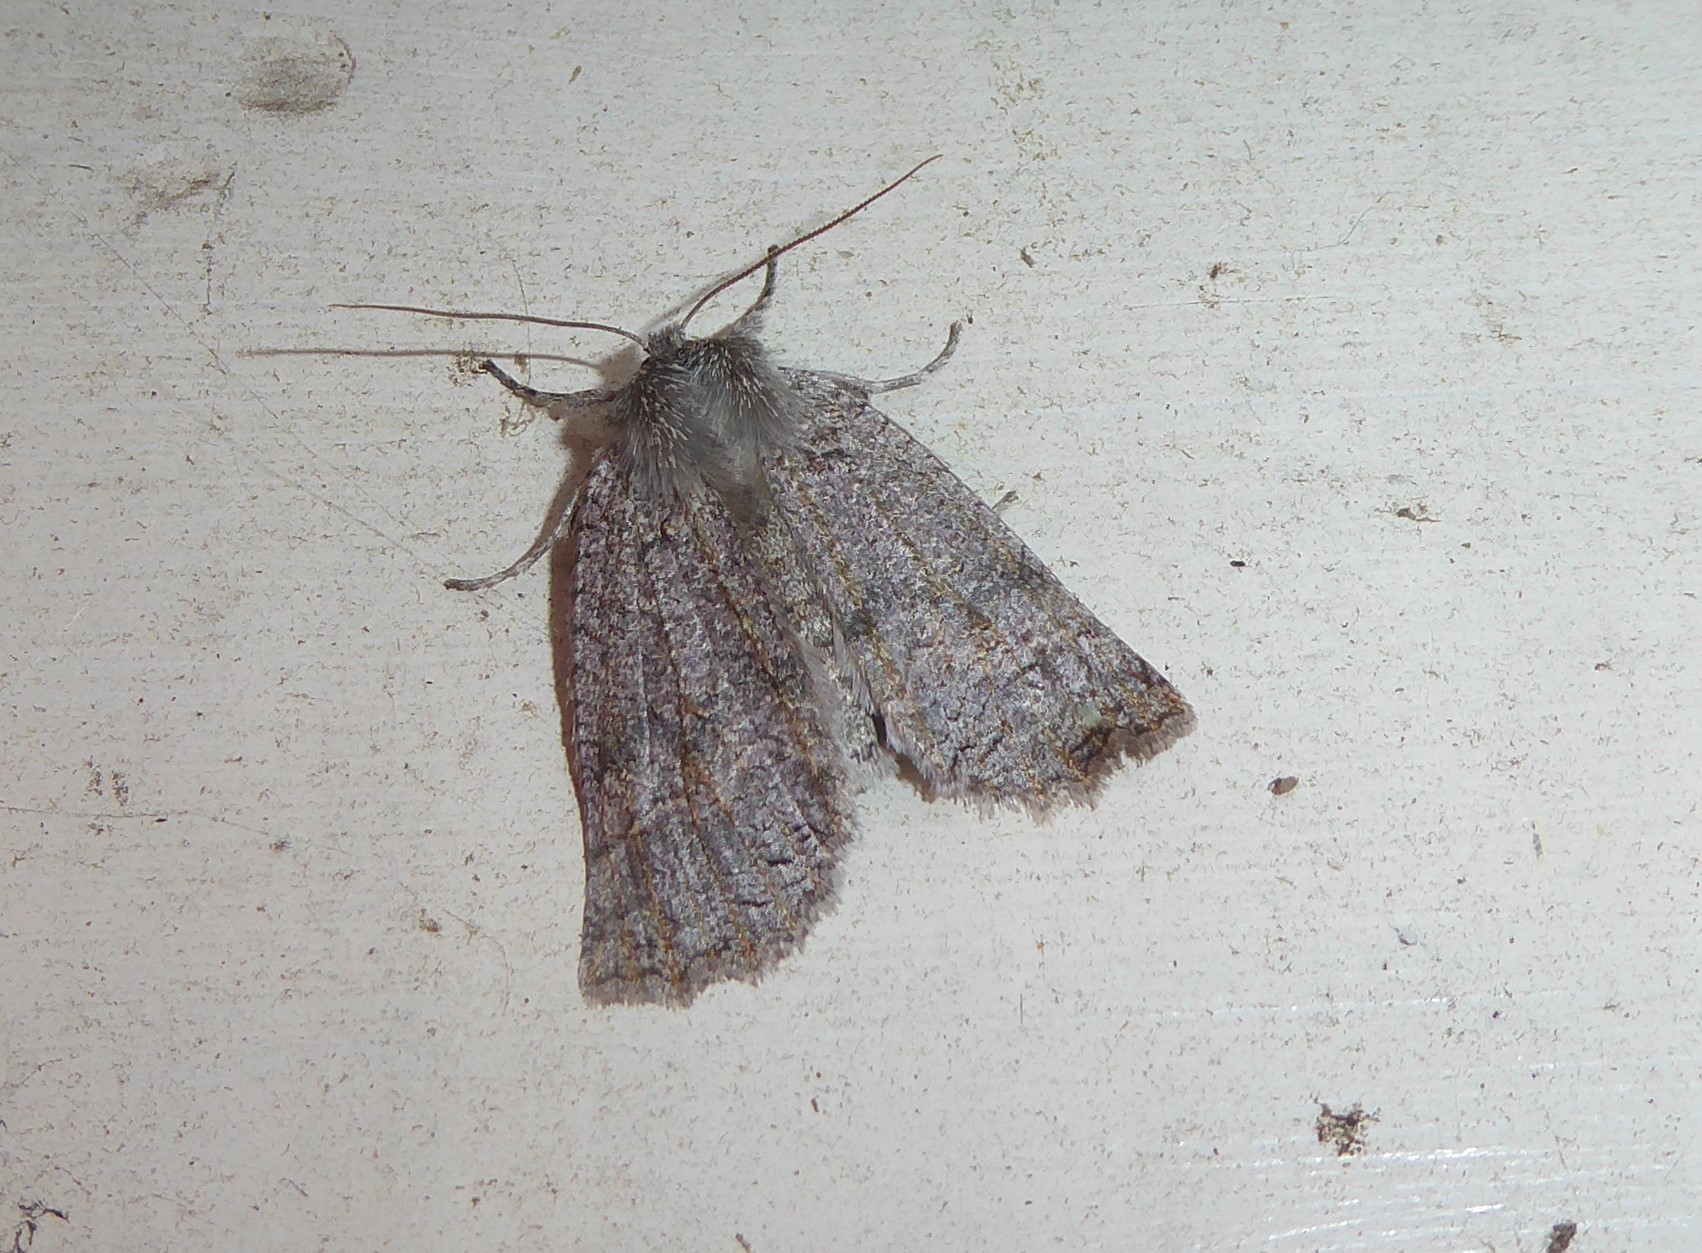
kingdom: Animalia
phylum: Arthropoda
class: Insecta
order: Lepidoptera
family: Geometridae
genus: Declana
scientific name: Declana floccosa
